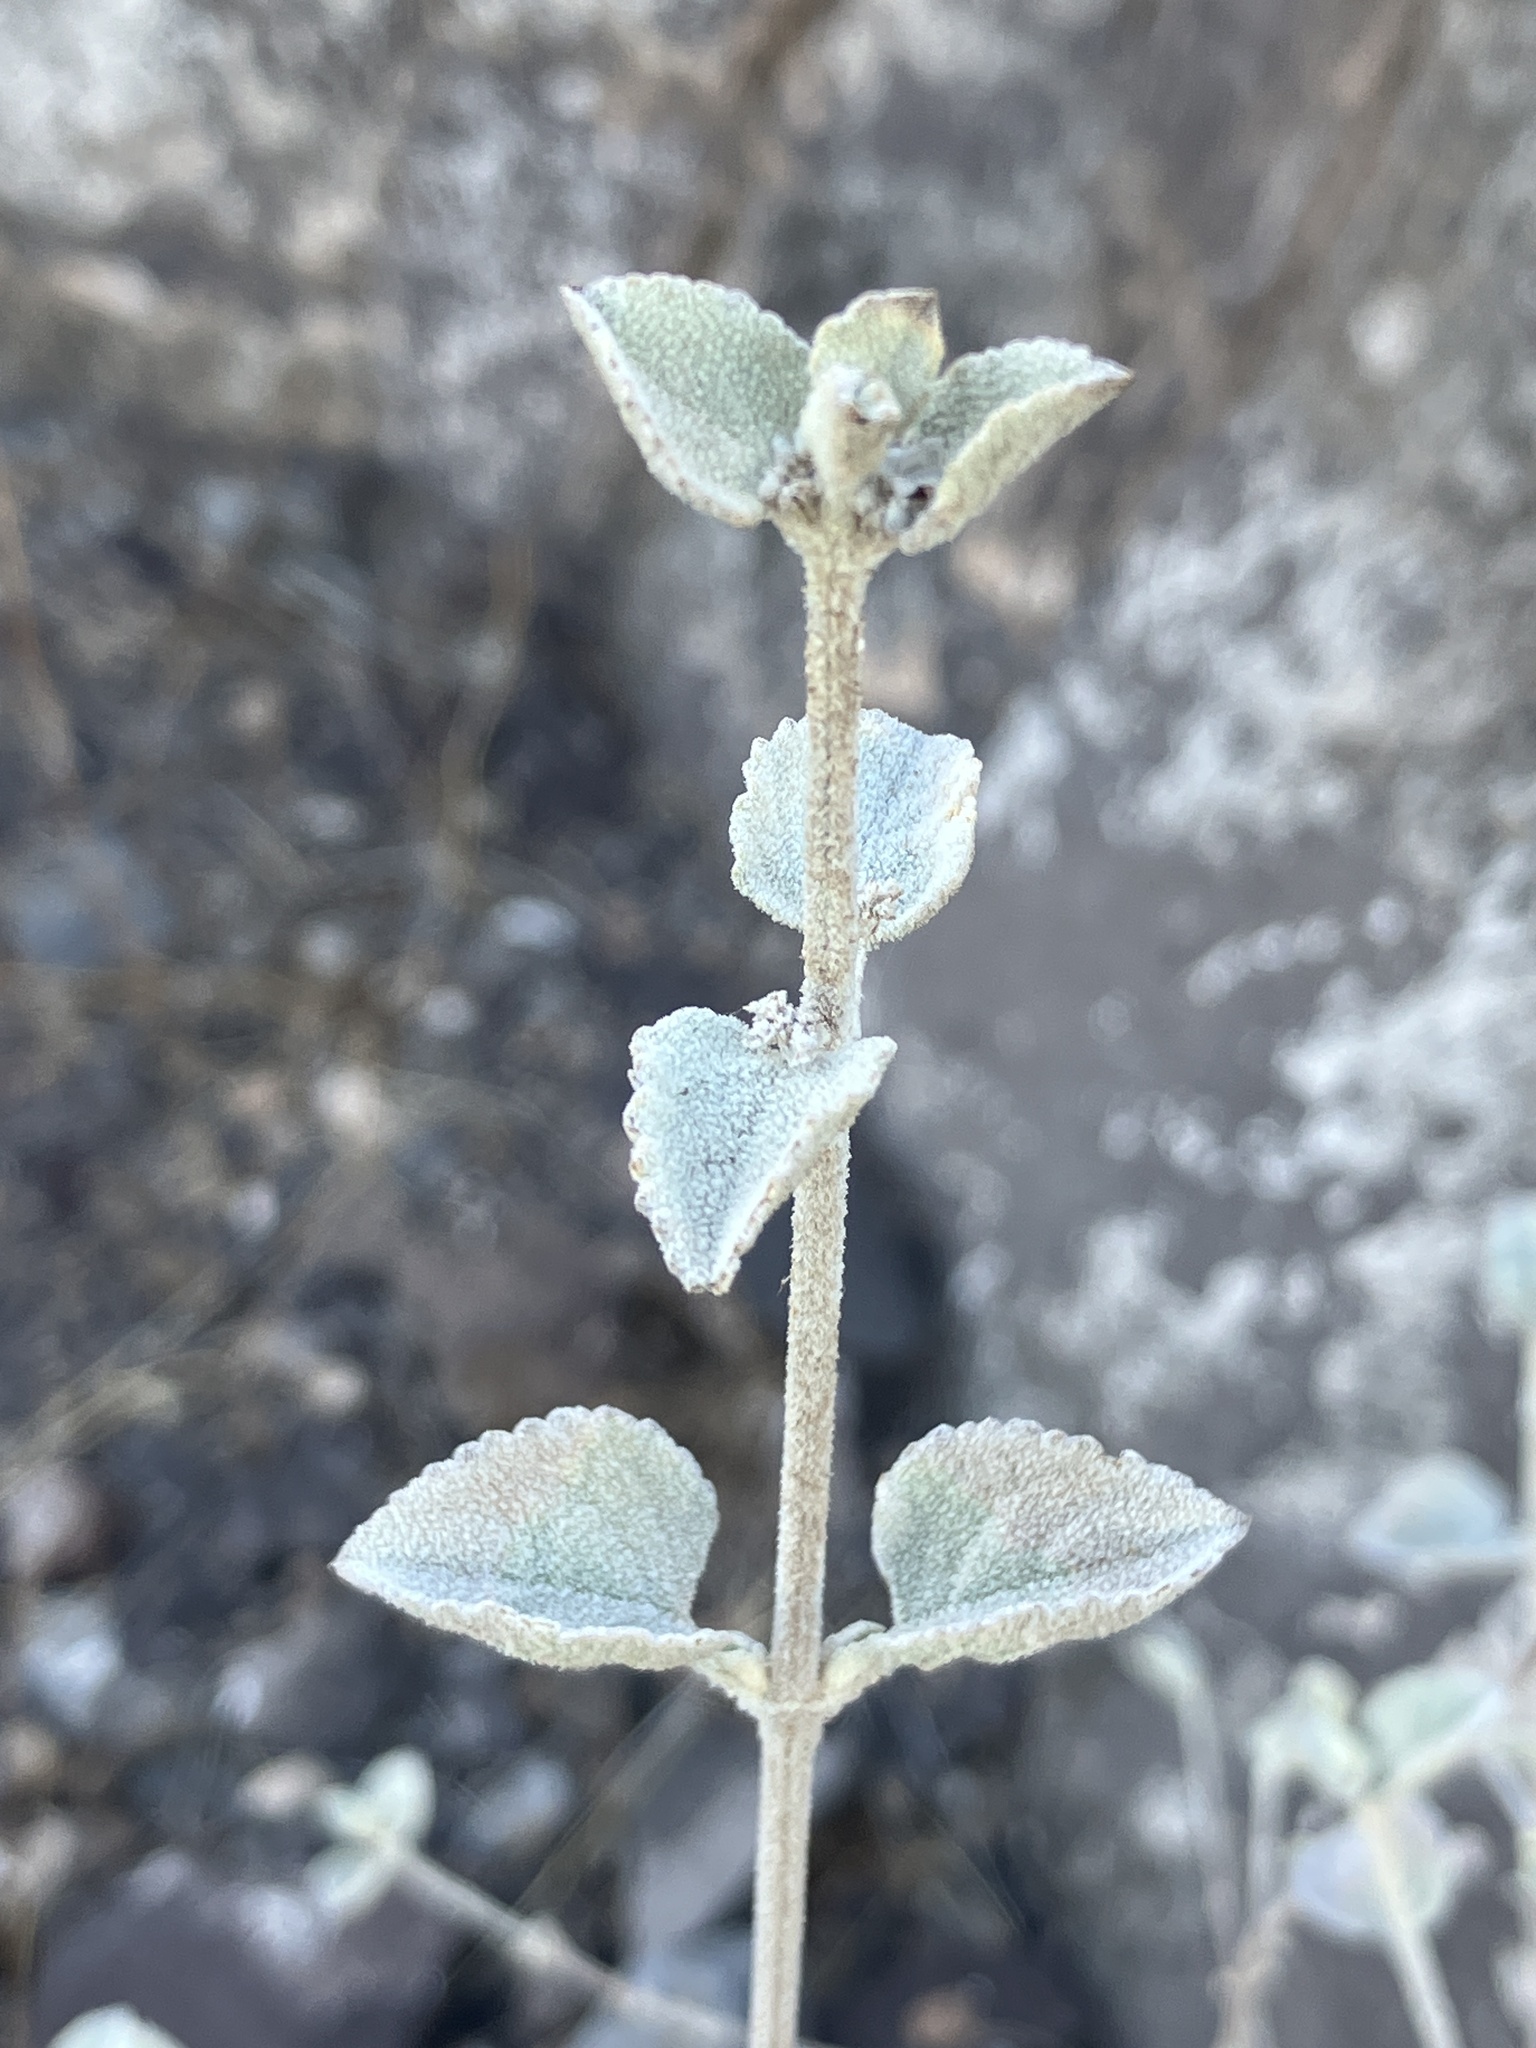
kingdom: Plantae
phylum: Tracheophyta
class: Magnoliopsida
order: Lamiales
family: Lamiaceae
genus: Condea
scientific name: Condea emoryi
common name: Chia
